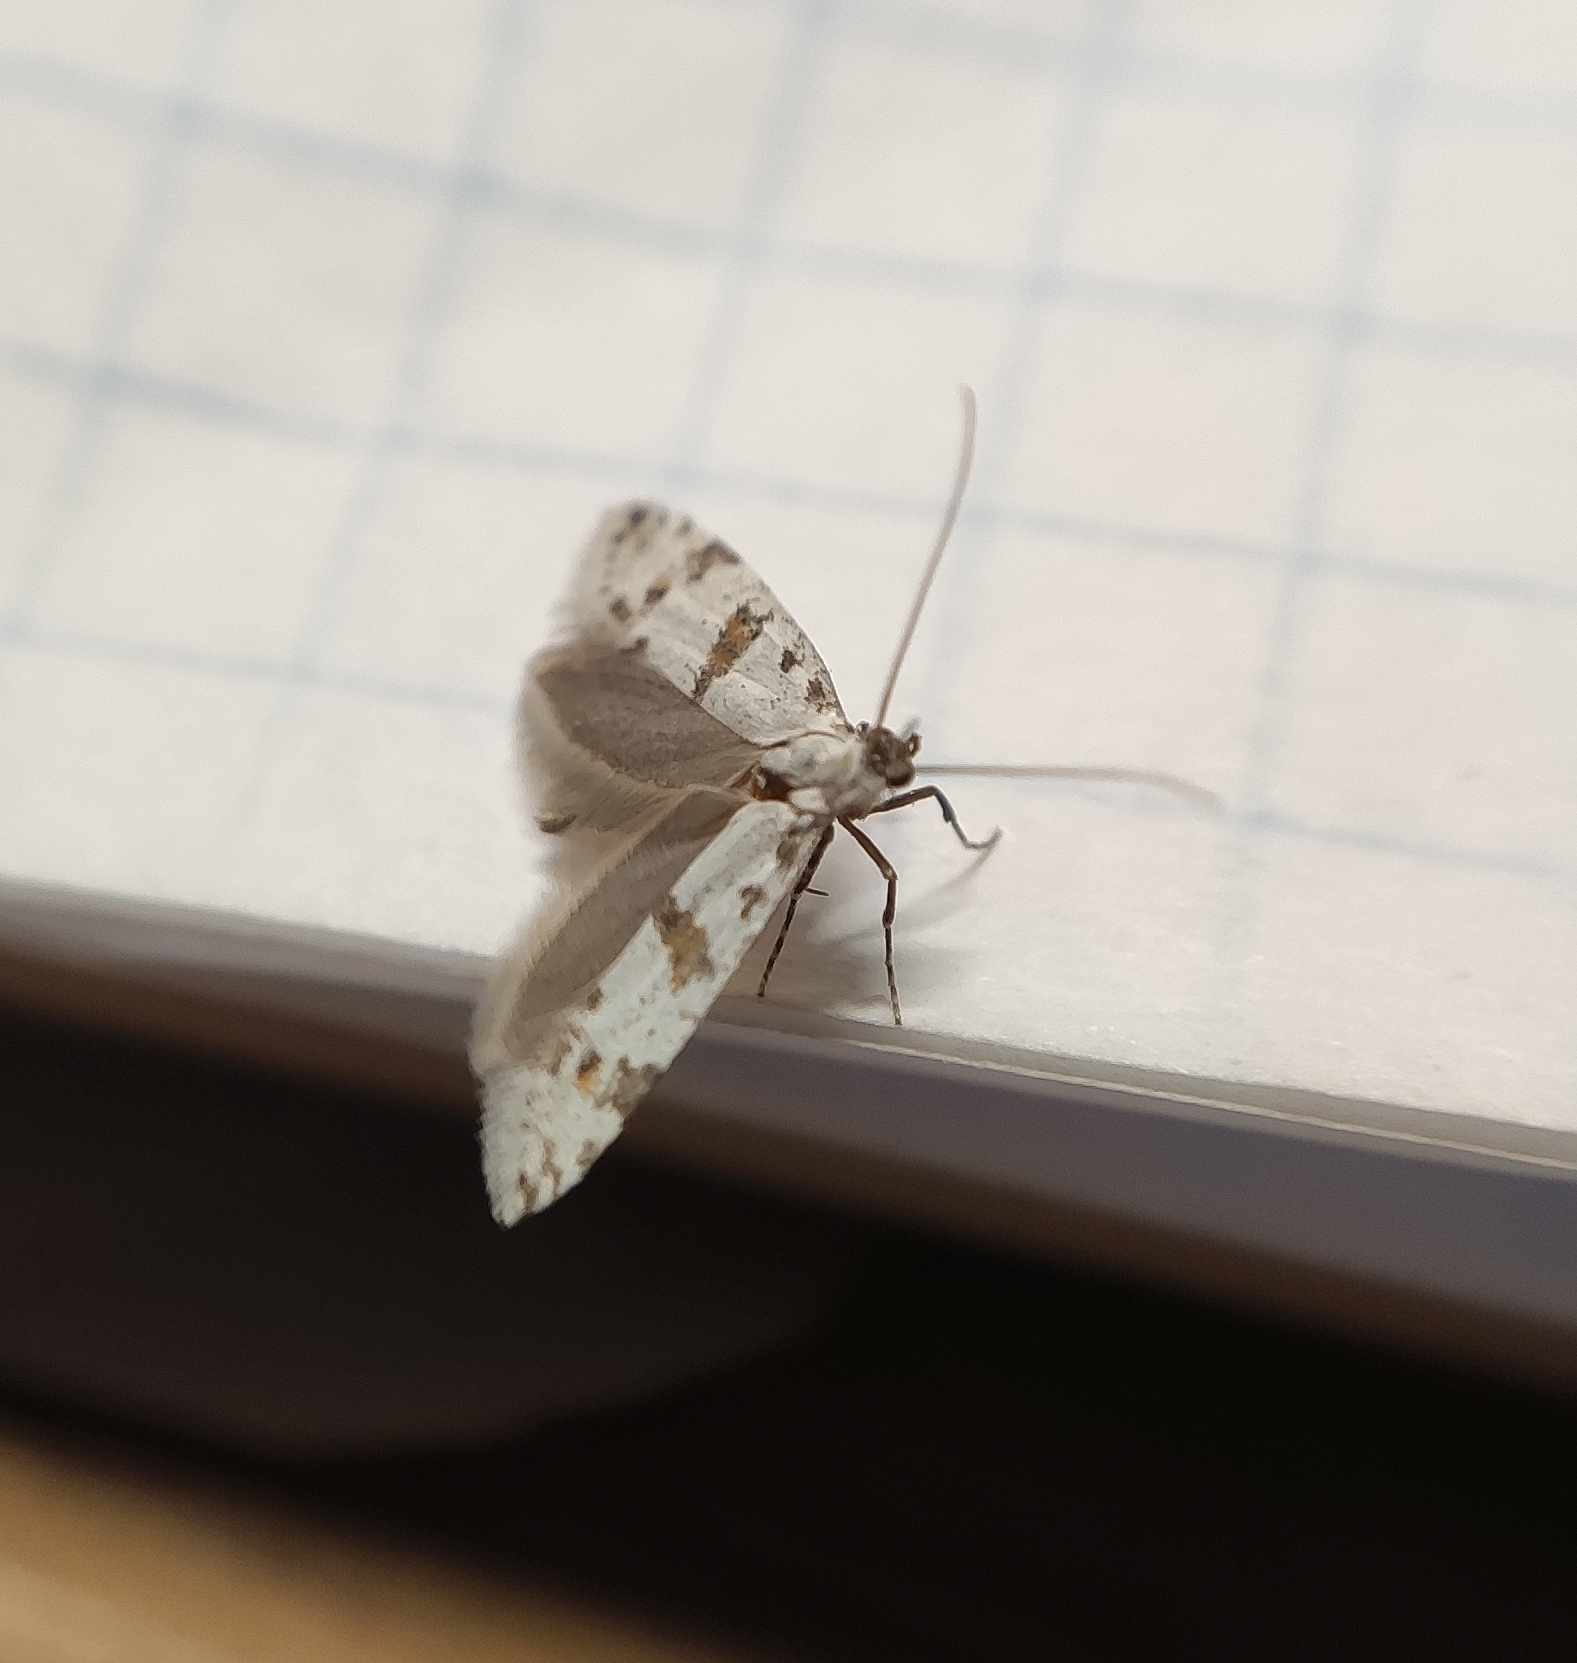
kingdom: Animalia
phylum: Arthropoda
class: Insecta
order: Lepidoptera
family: Yponomeutidae
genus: Scythropia
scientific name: Scythropia crataegella
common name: Hawthorn moth
